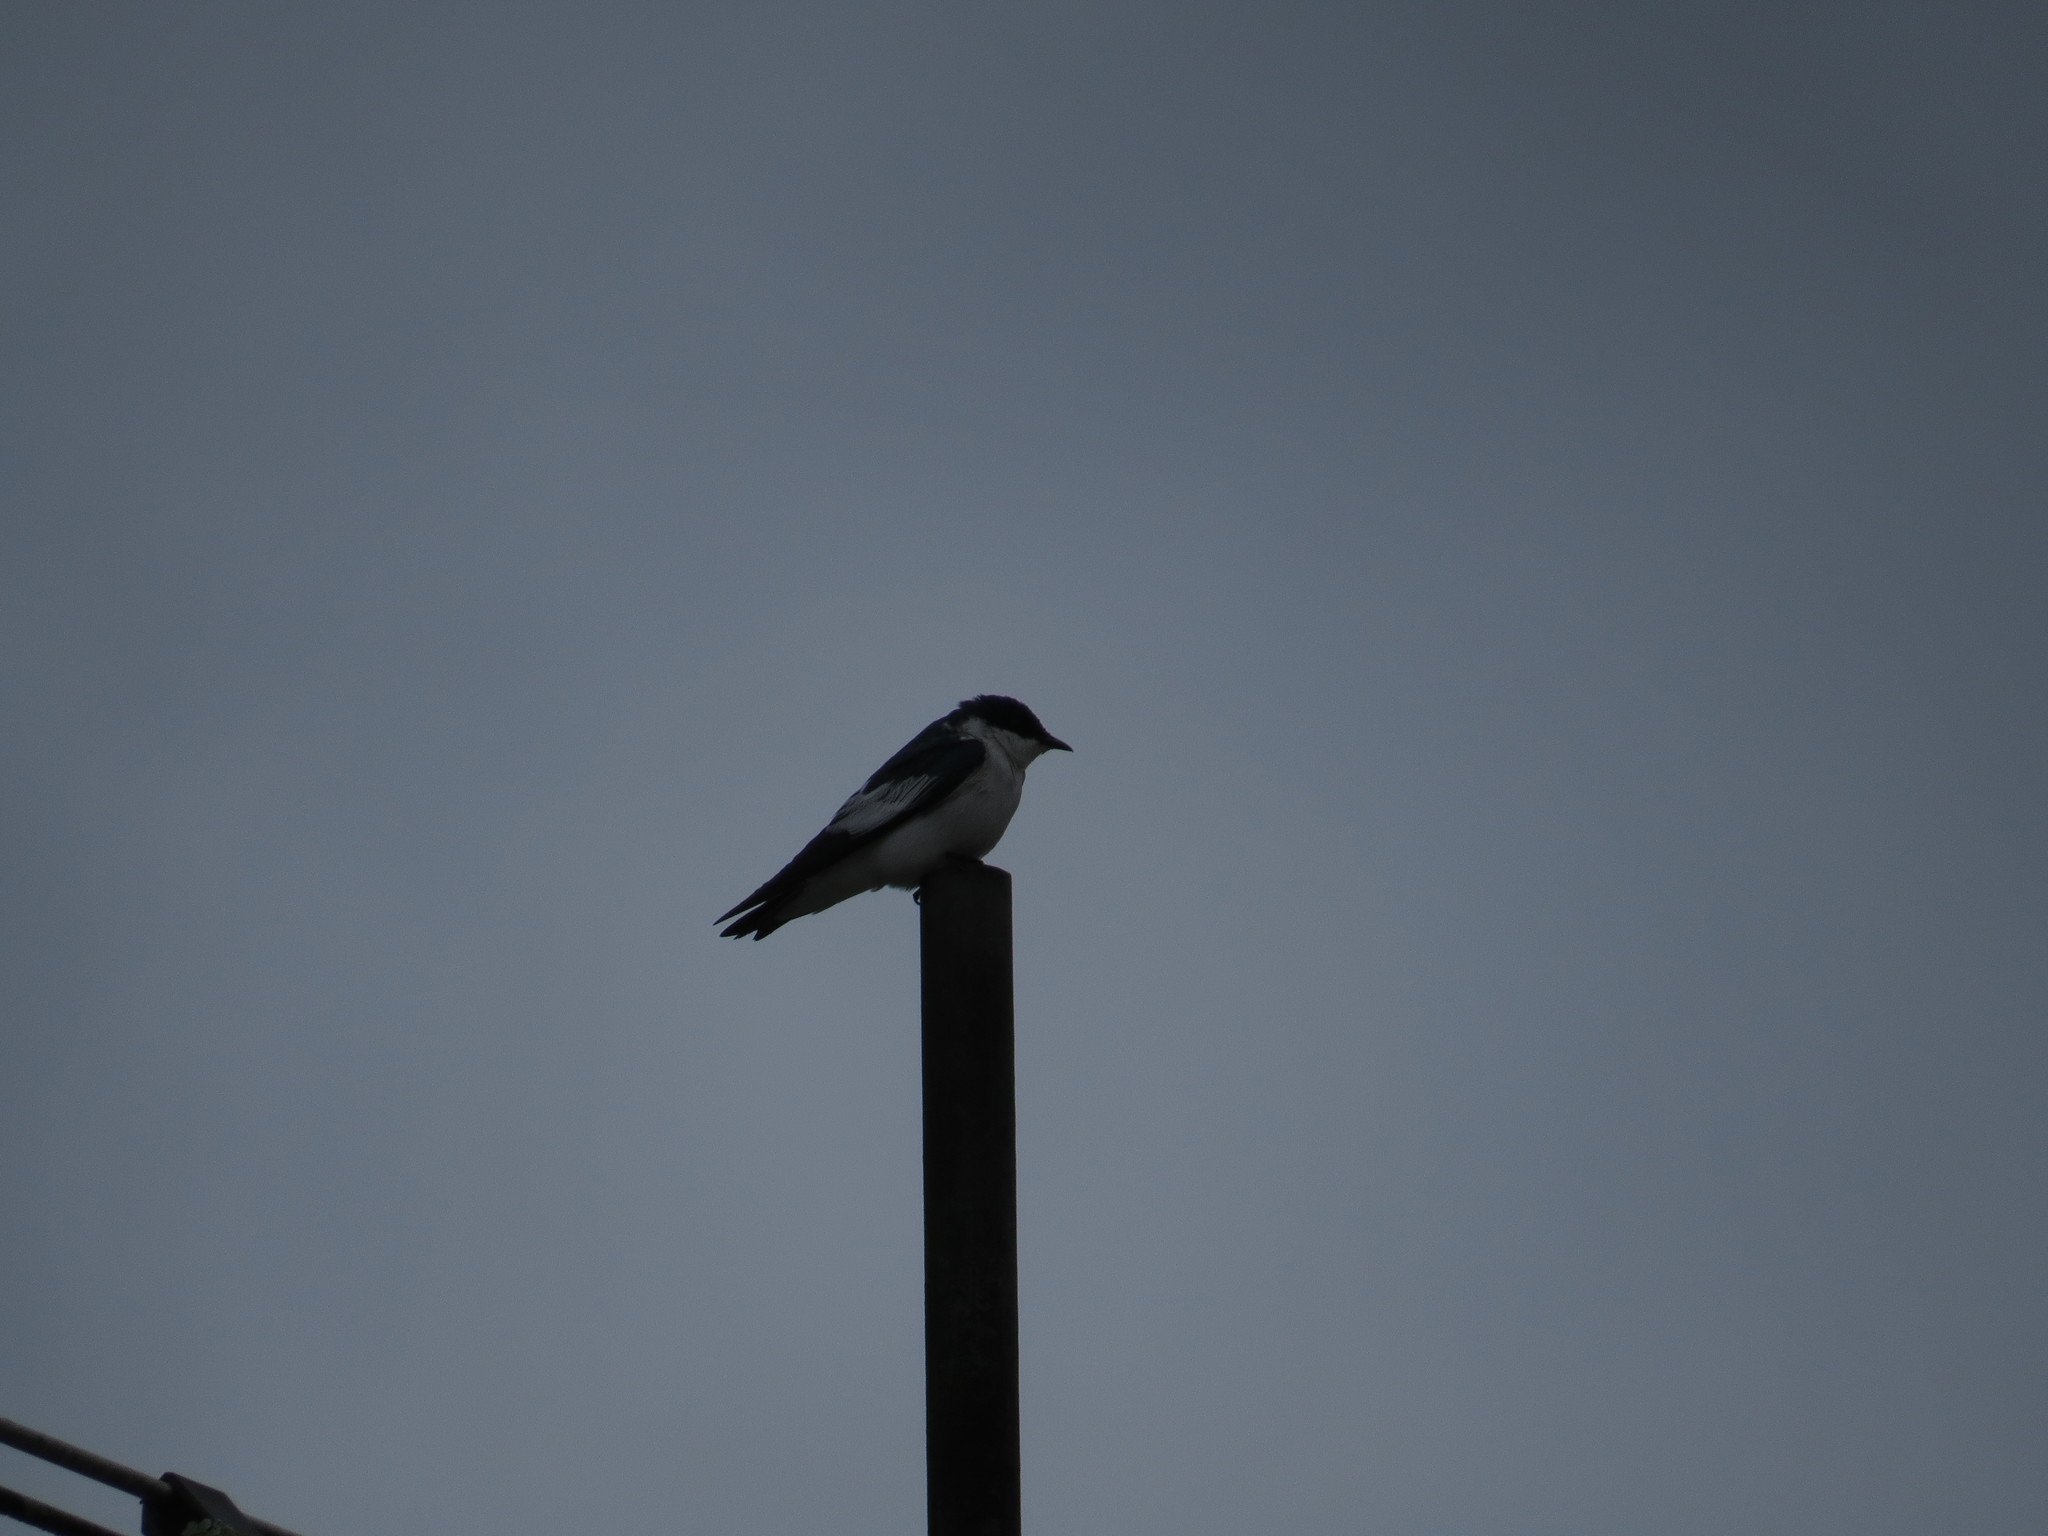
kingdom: Animalia
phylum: Chordata
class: Aves
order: Passeriformes
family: Hirundinidae
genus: Tachycineta
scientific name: Tachycineta albiventer
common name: White-winged swallow
